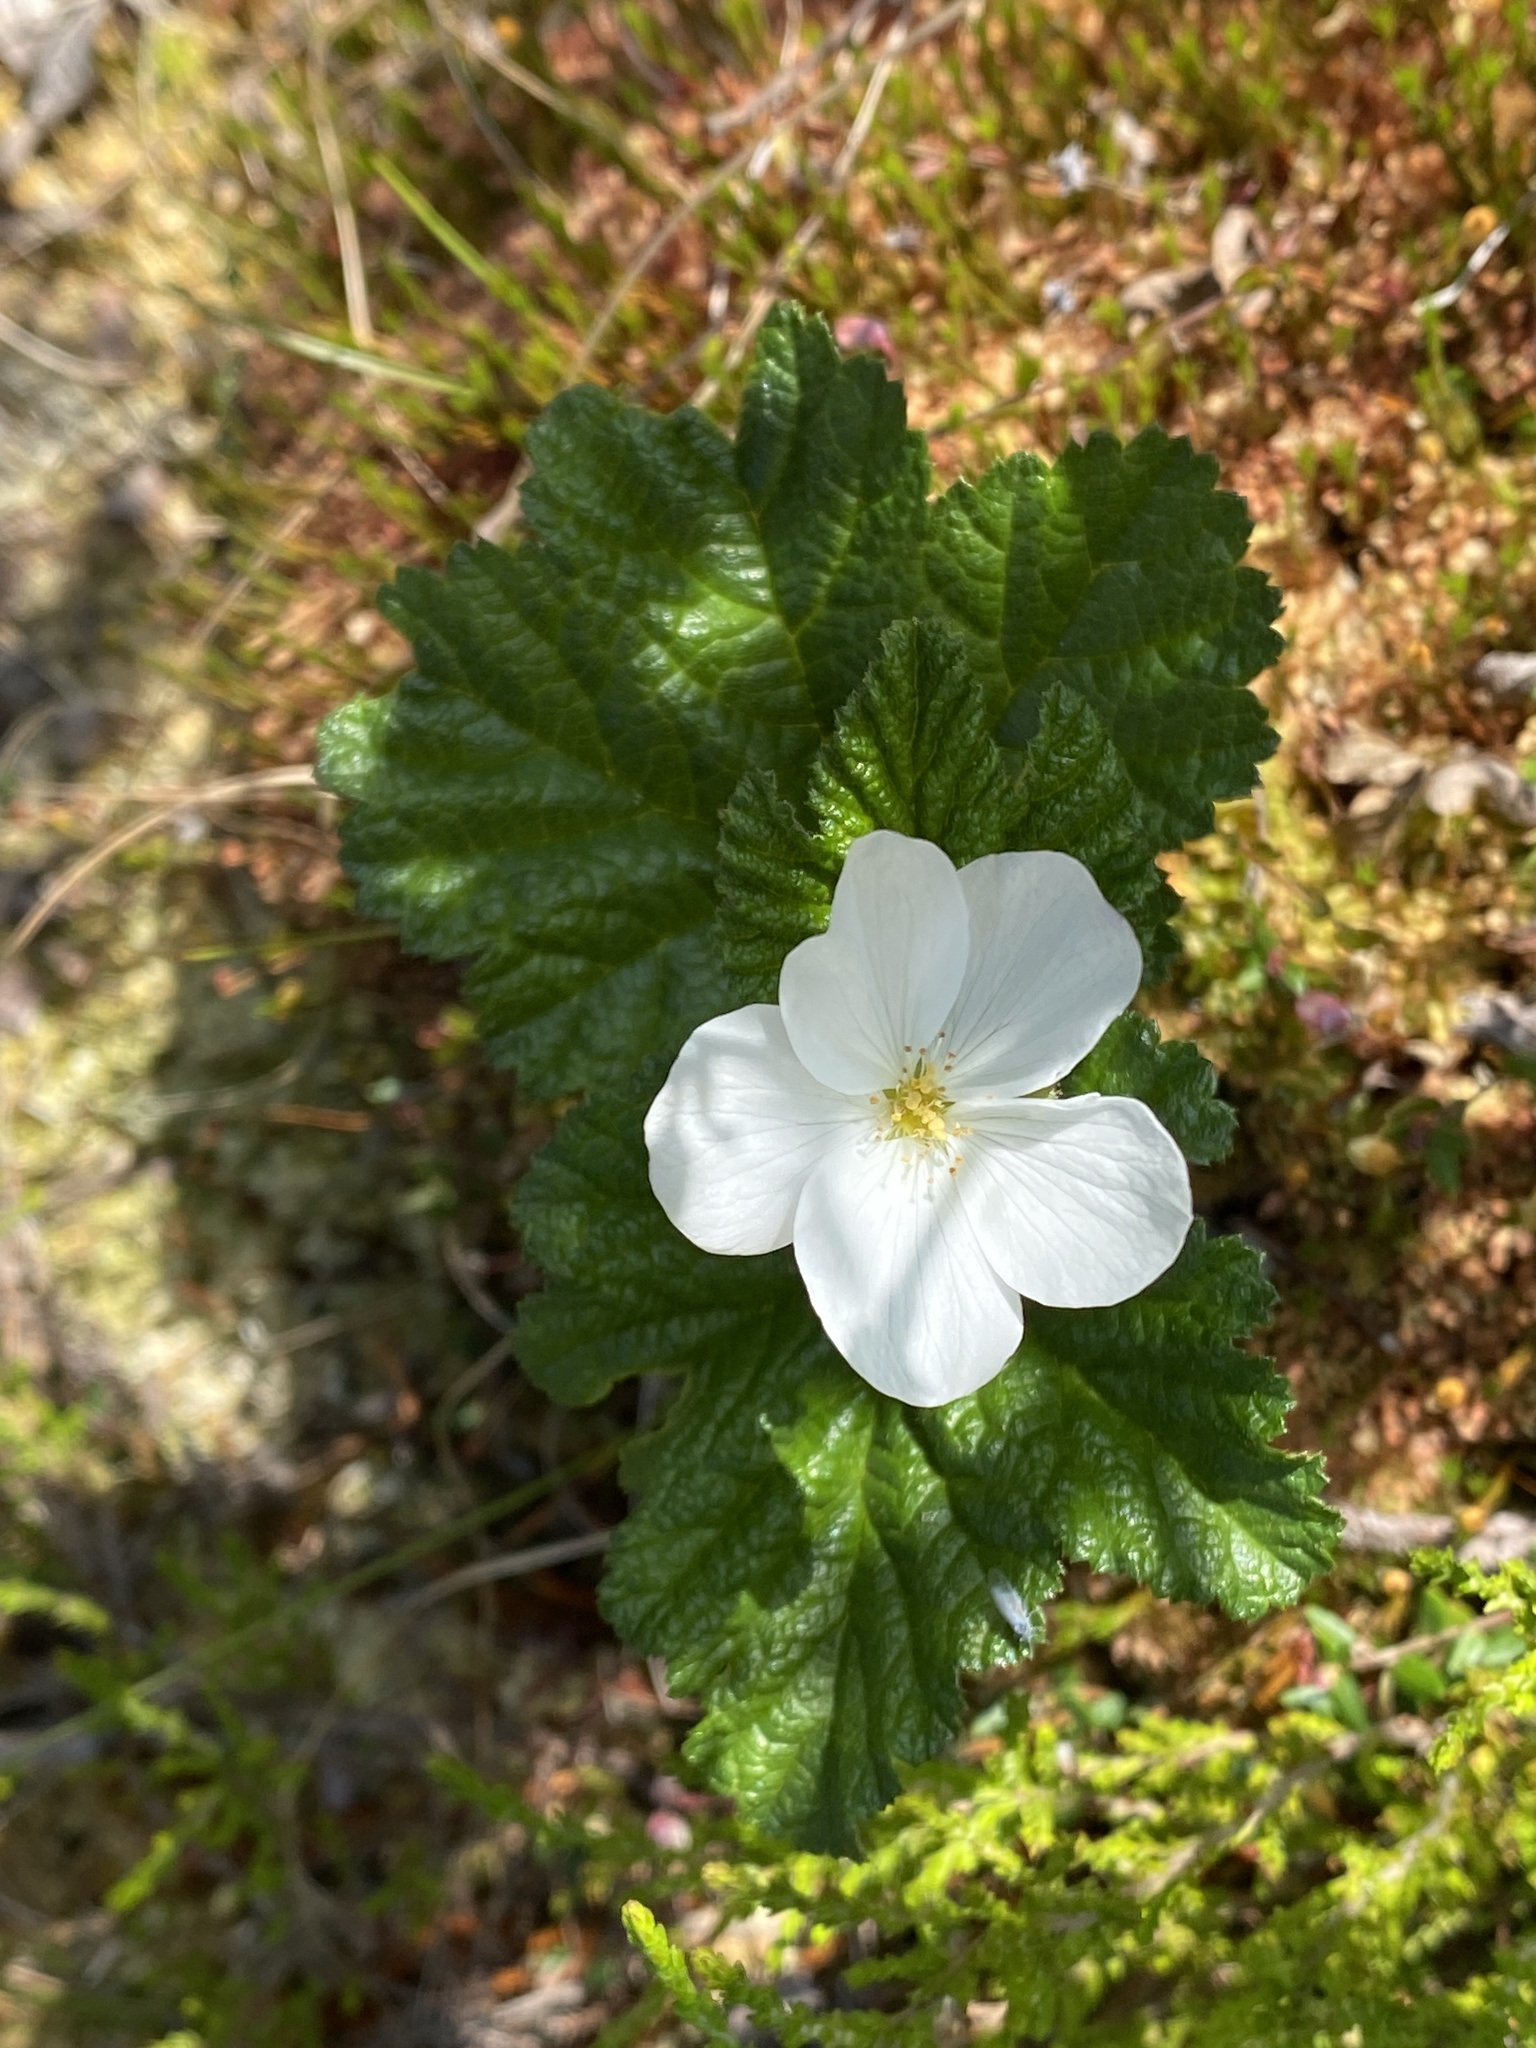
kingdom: Plantae
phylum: Tracheophyta
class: Magnoliopsida
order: Rosales
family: Rosaceae
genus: Rubus
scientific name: Rubus chamaemorus
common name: Cloudberry
